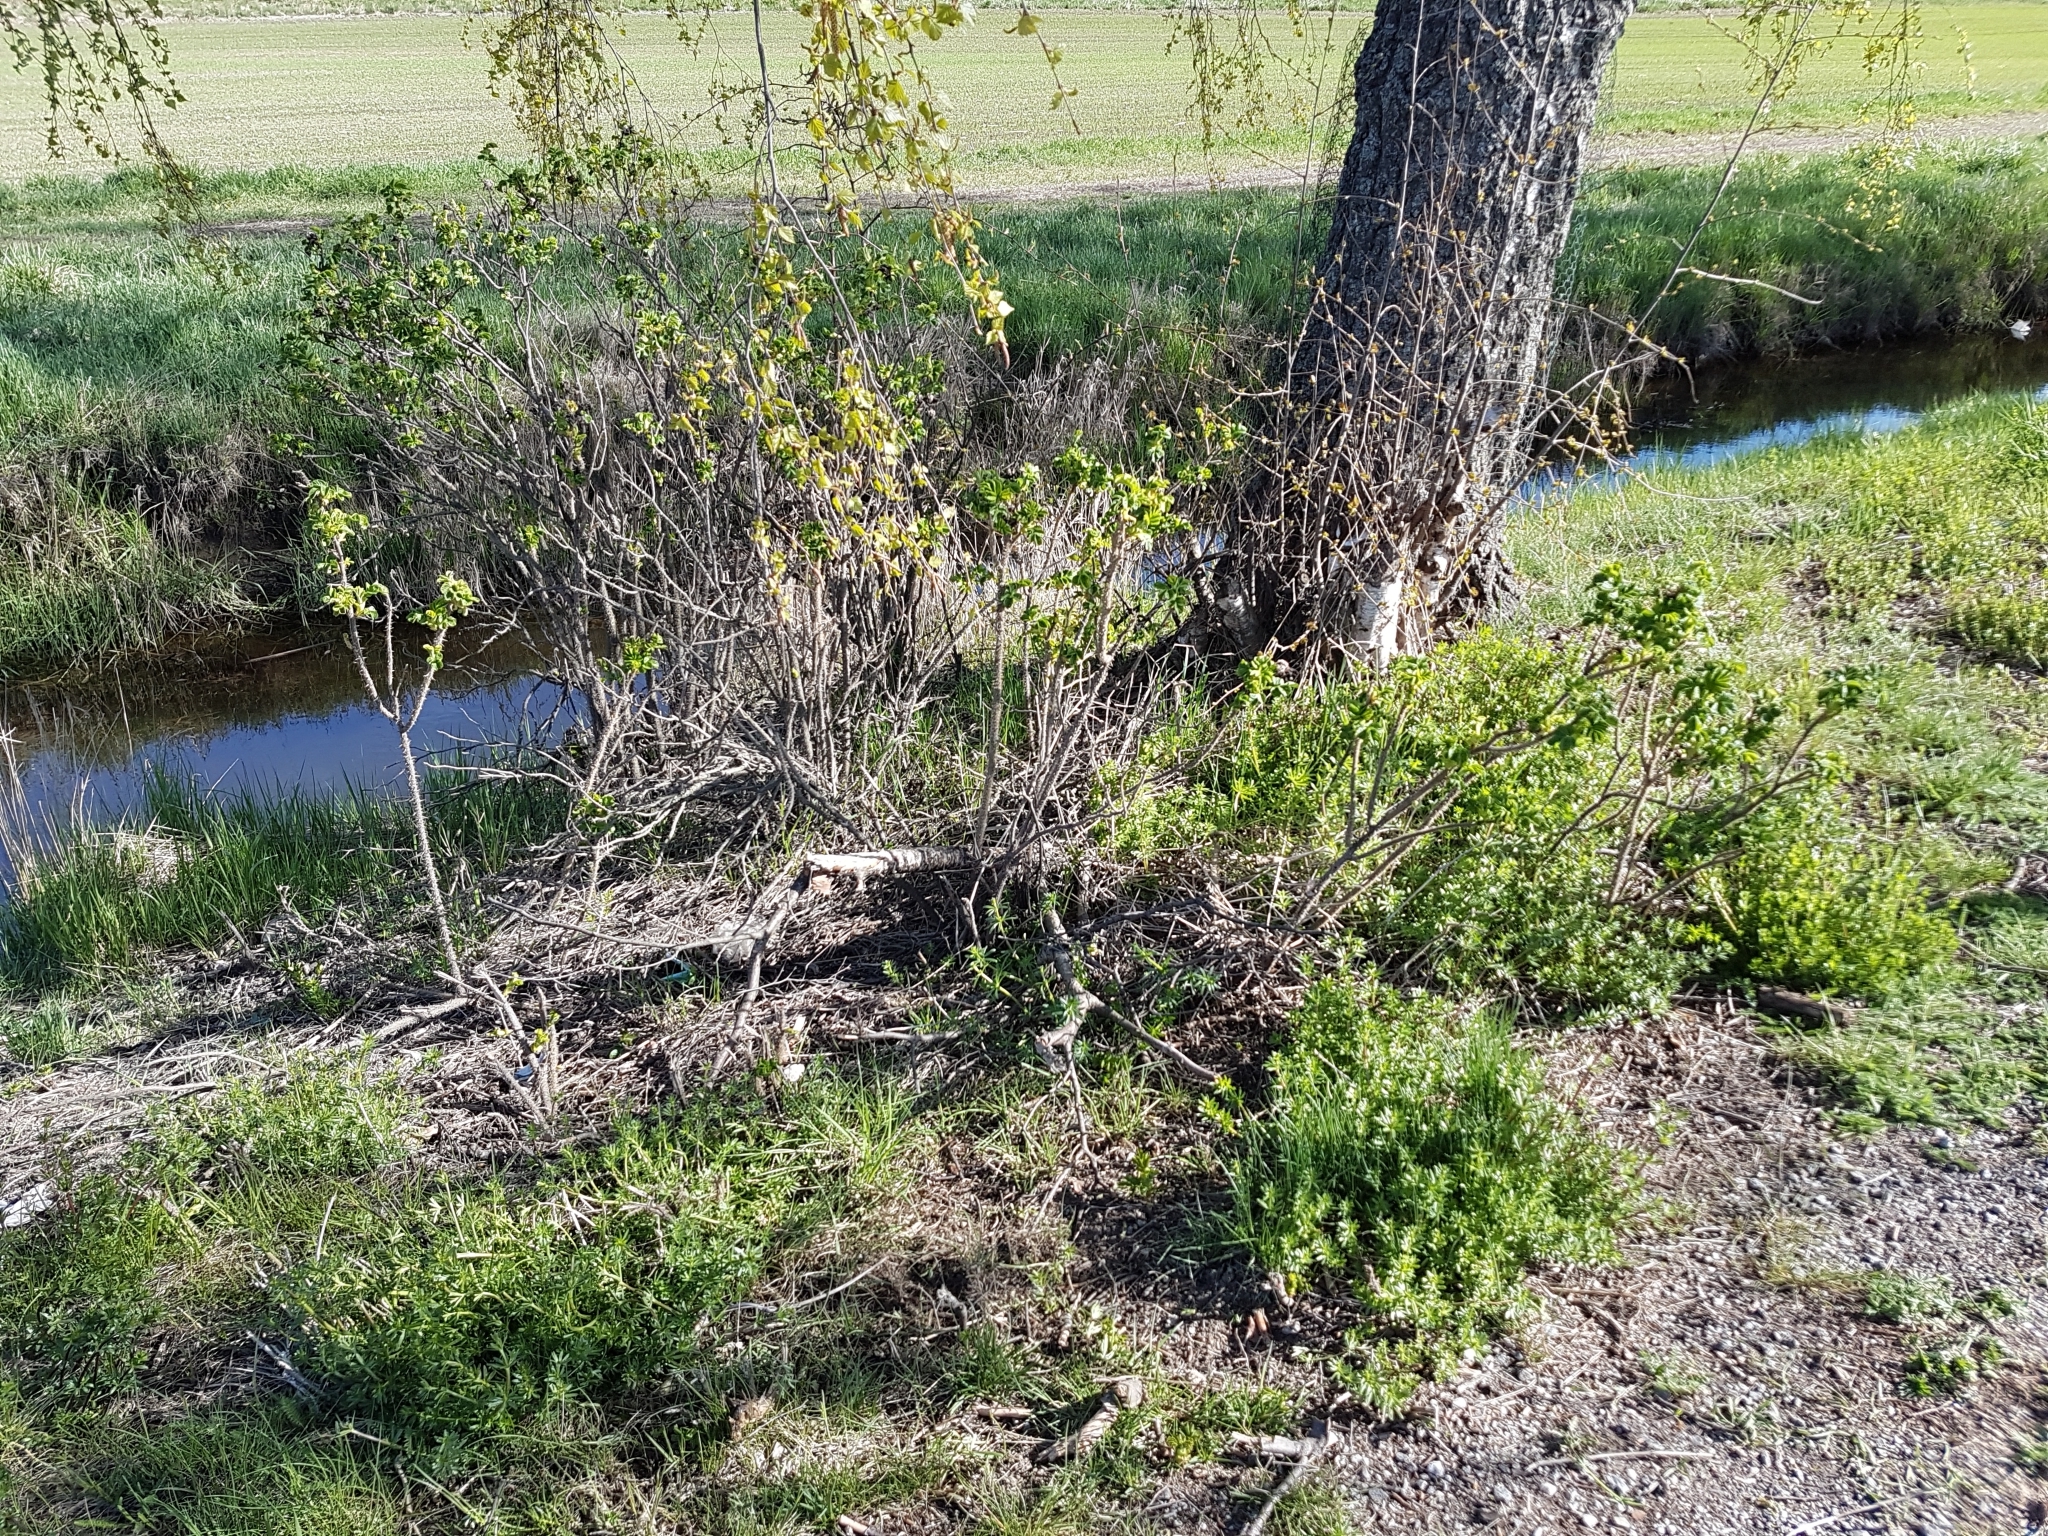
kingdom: Plantae
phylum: Tracheophyta
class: Magnoliopsida
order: Rosales
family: Rosaceae
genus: Rosa
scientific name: Rosa rugosa
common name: Japanese rose
